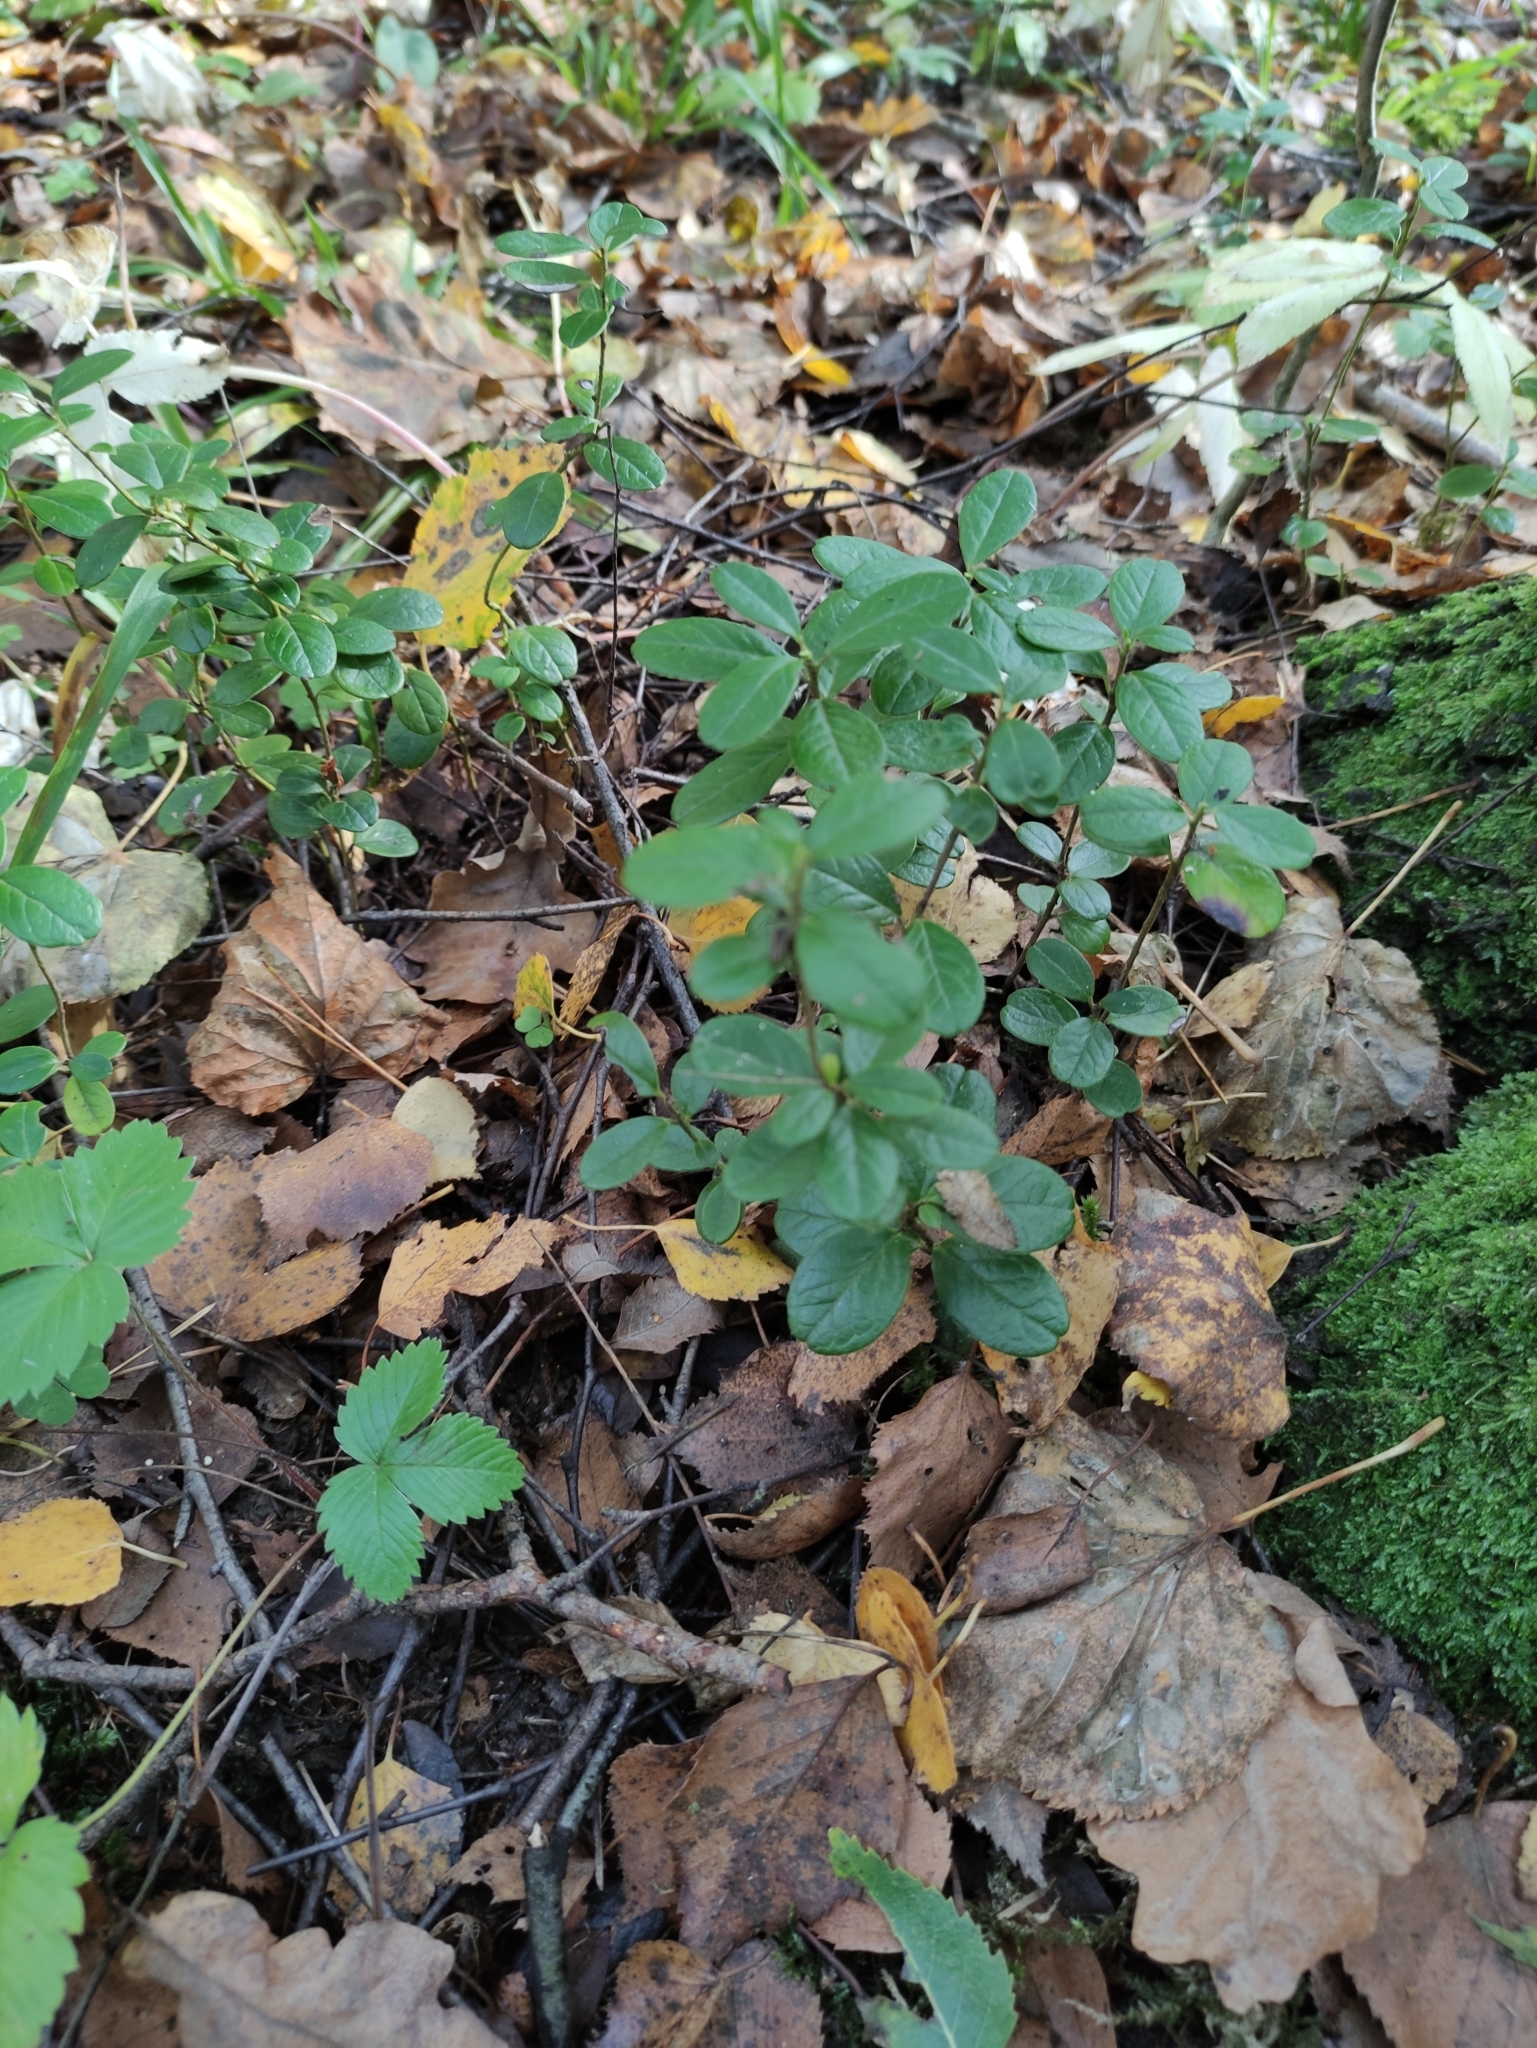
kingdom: Plantae
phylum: Tracheophyta
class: Magnoliopsida
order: Ericales
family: Ericaceae
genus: Vaccinium
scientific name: Vaccinium vitis-idaea
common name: Cowberry
